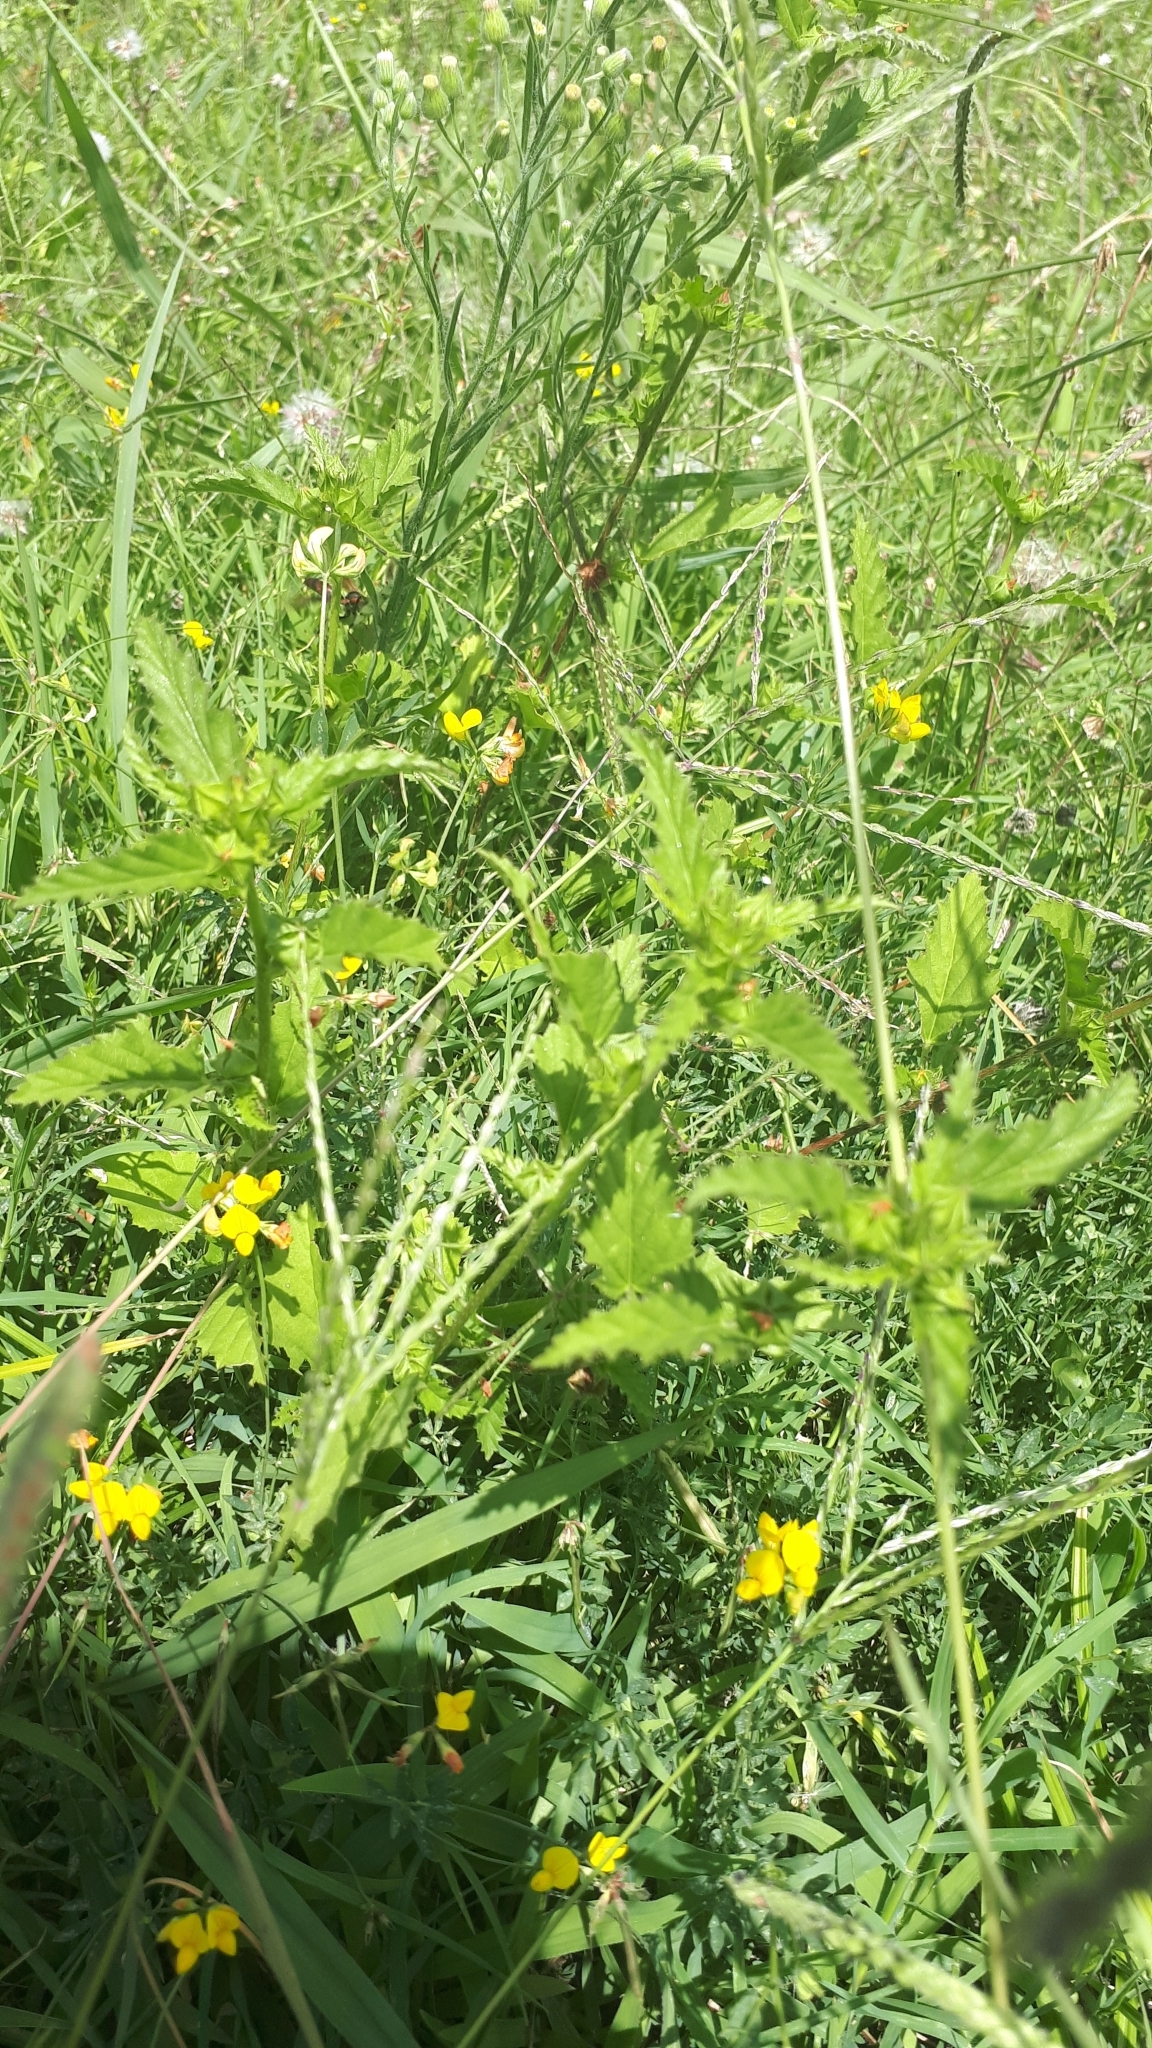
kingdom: Plantae
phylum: Tracheophyta
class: Magnoliopsida
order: Malvales
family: Malvaceae
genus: Malvastrum
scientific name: Malvastrum coromandelianum
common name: Threelobe false mallow
